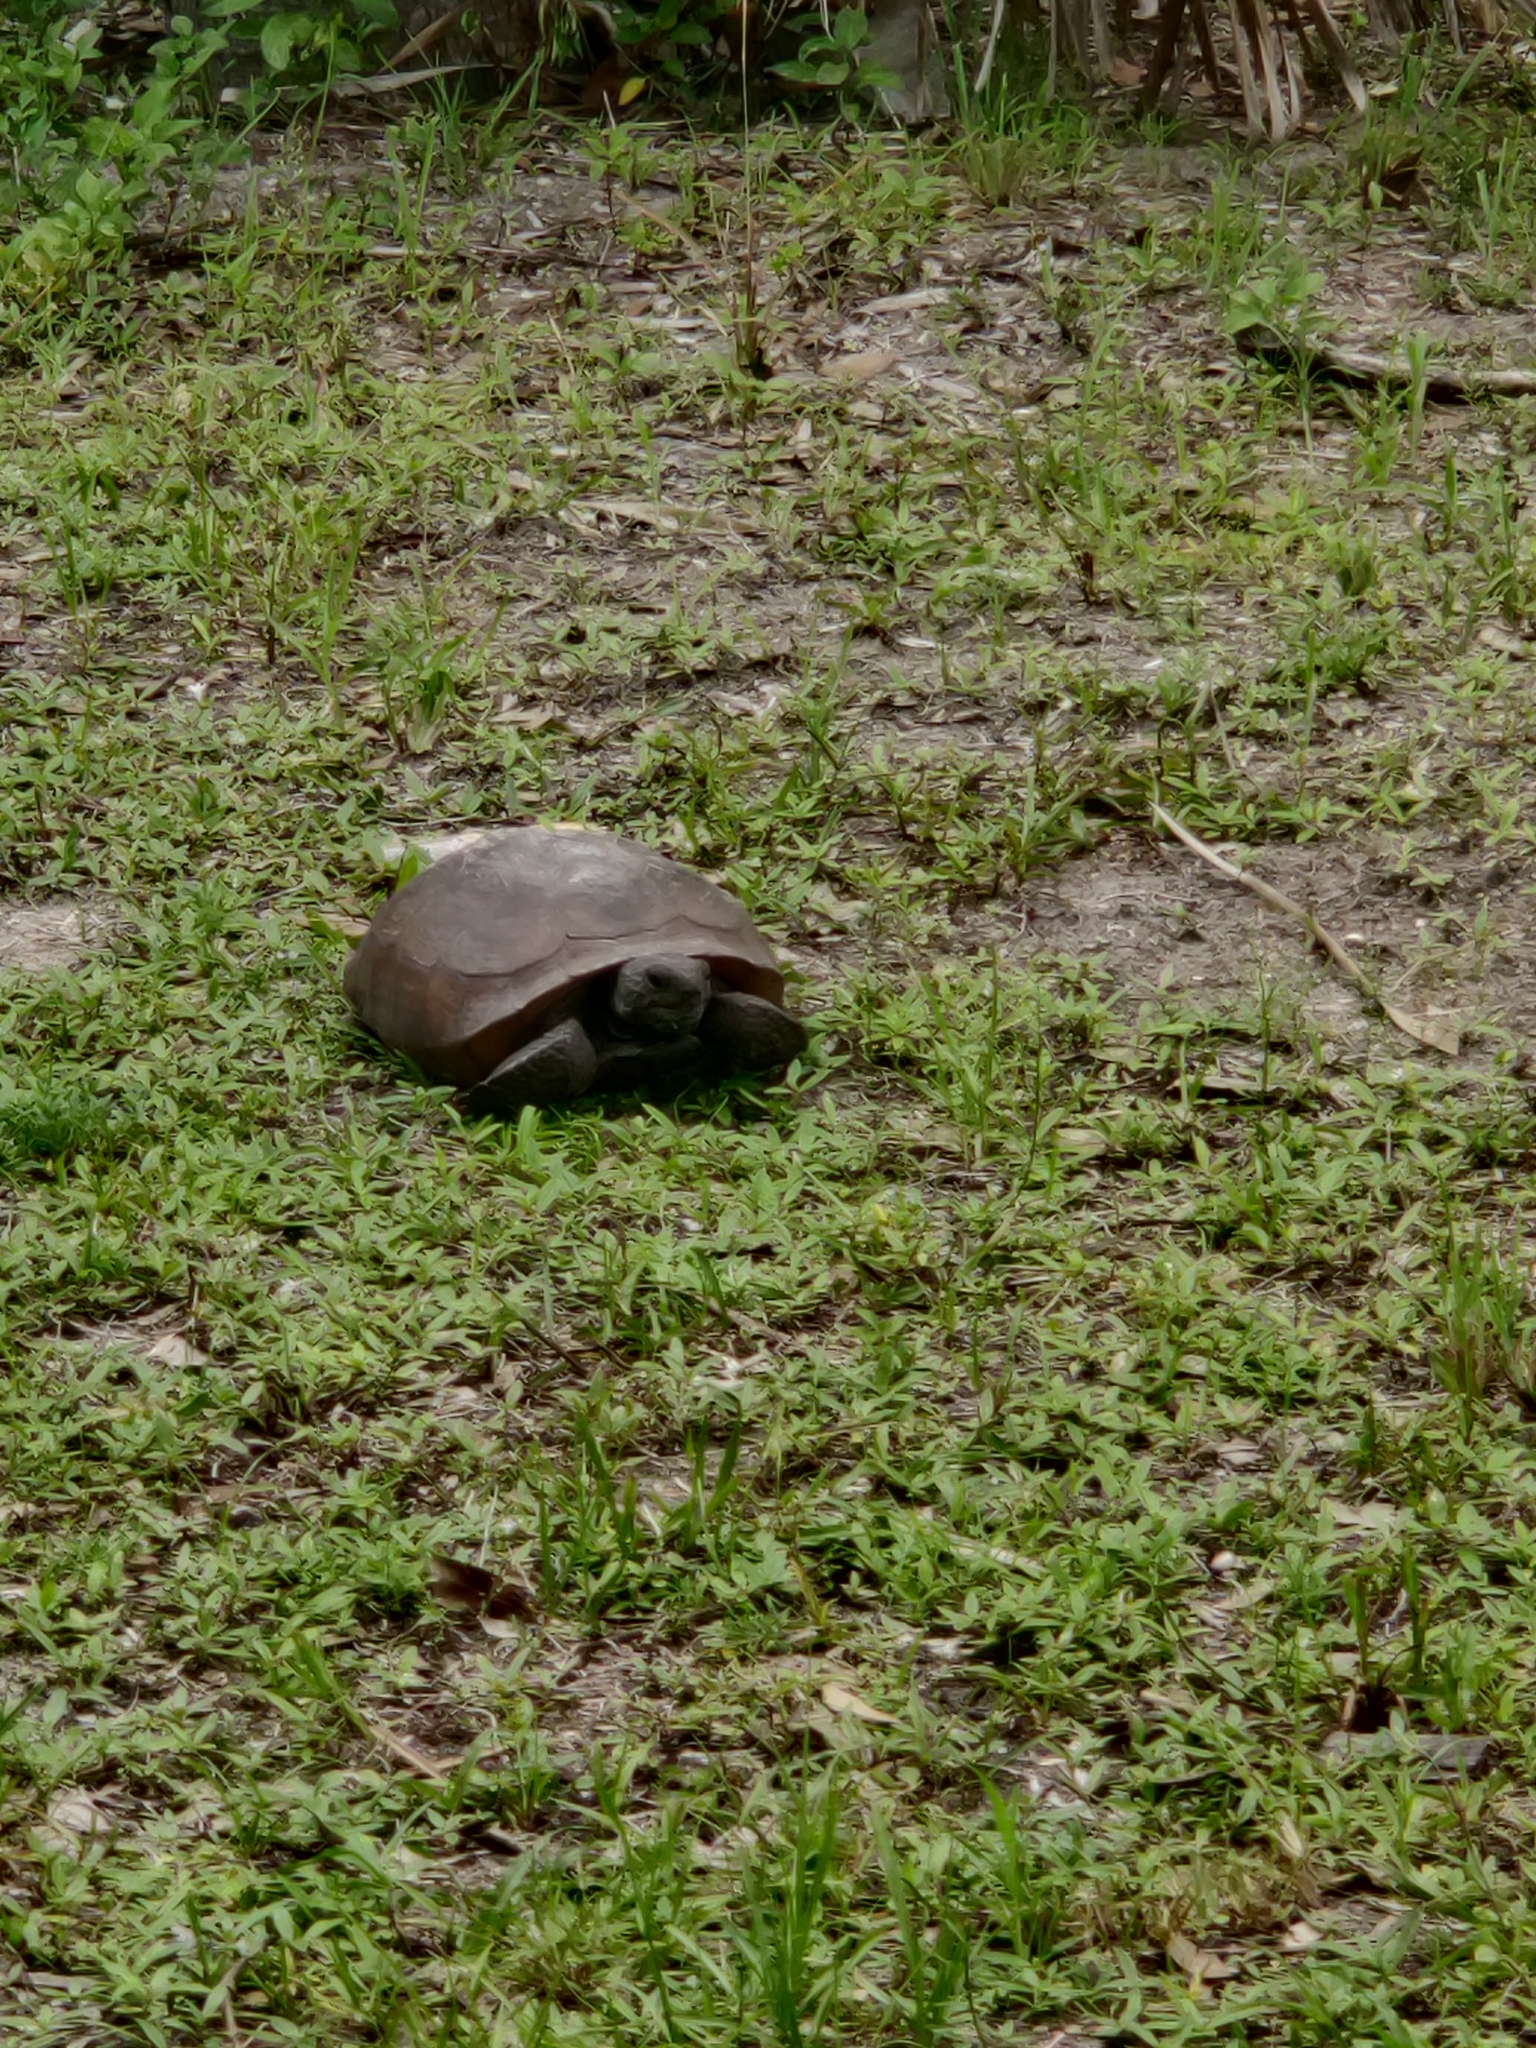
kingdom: Animalia
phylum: Chordata
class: Testudines
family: Testudinidae
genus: Gopherus
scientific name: Gopherus polyphemus
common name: Florida gopher tortoise
